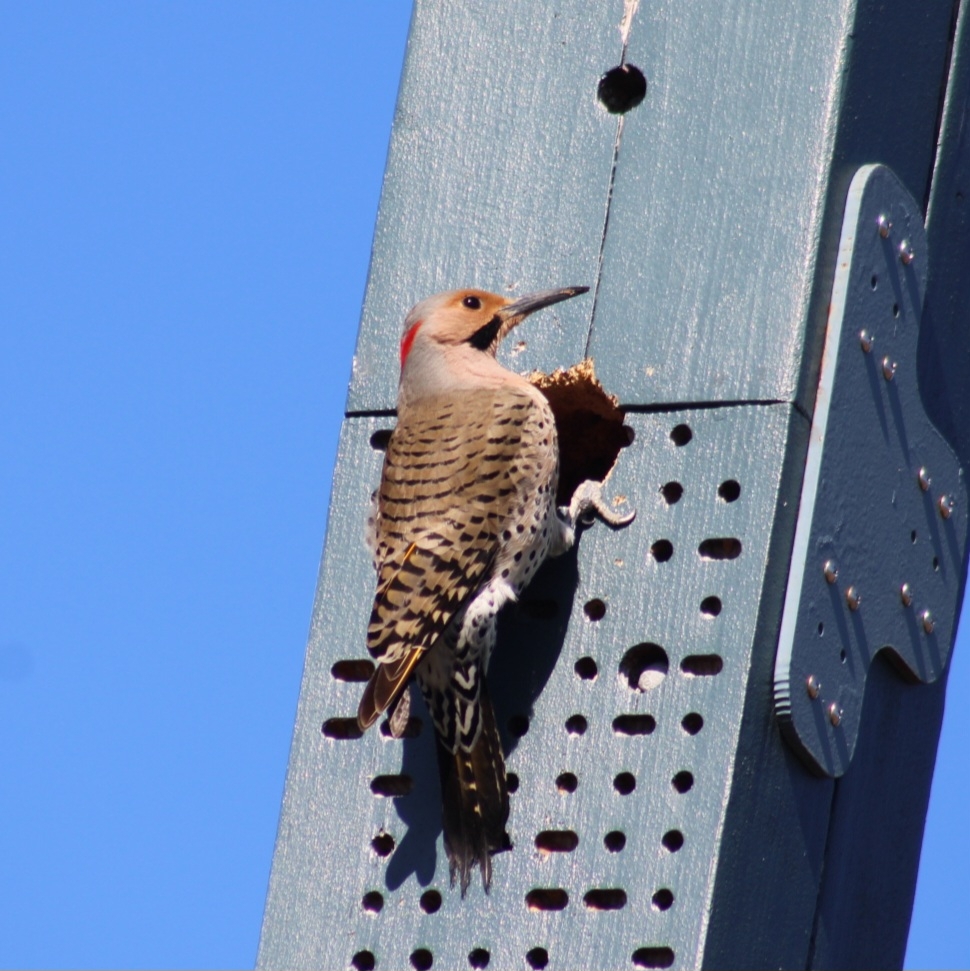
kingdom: Animalia
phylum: Chordata
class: Aves
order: Piciformes
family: Picidae
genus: Colaptes
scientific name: Colaptes auratus
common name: Northern flicker
